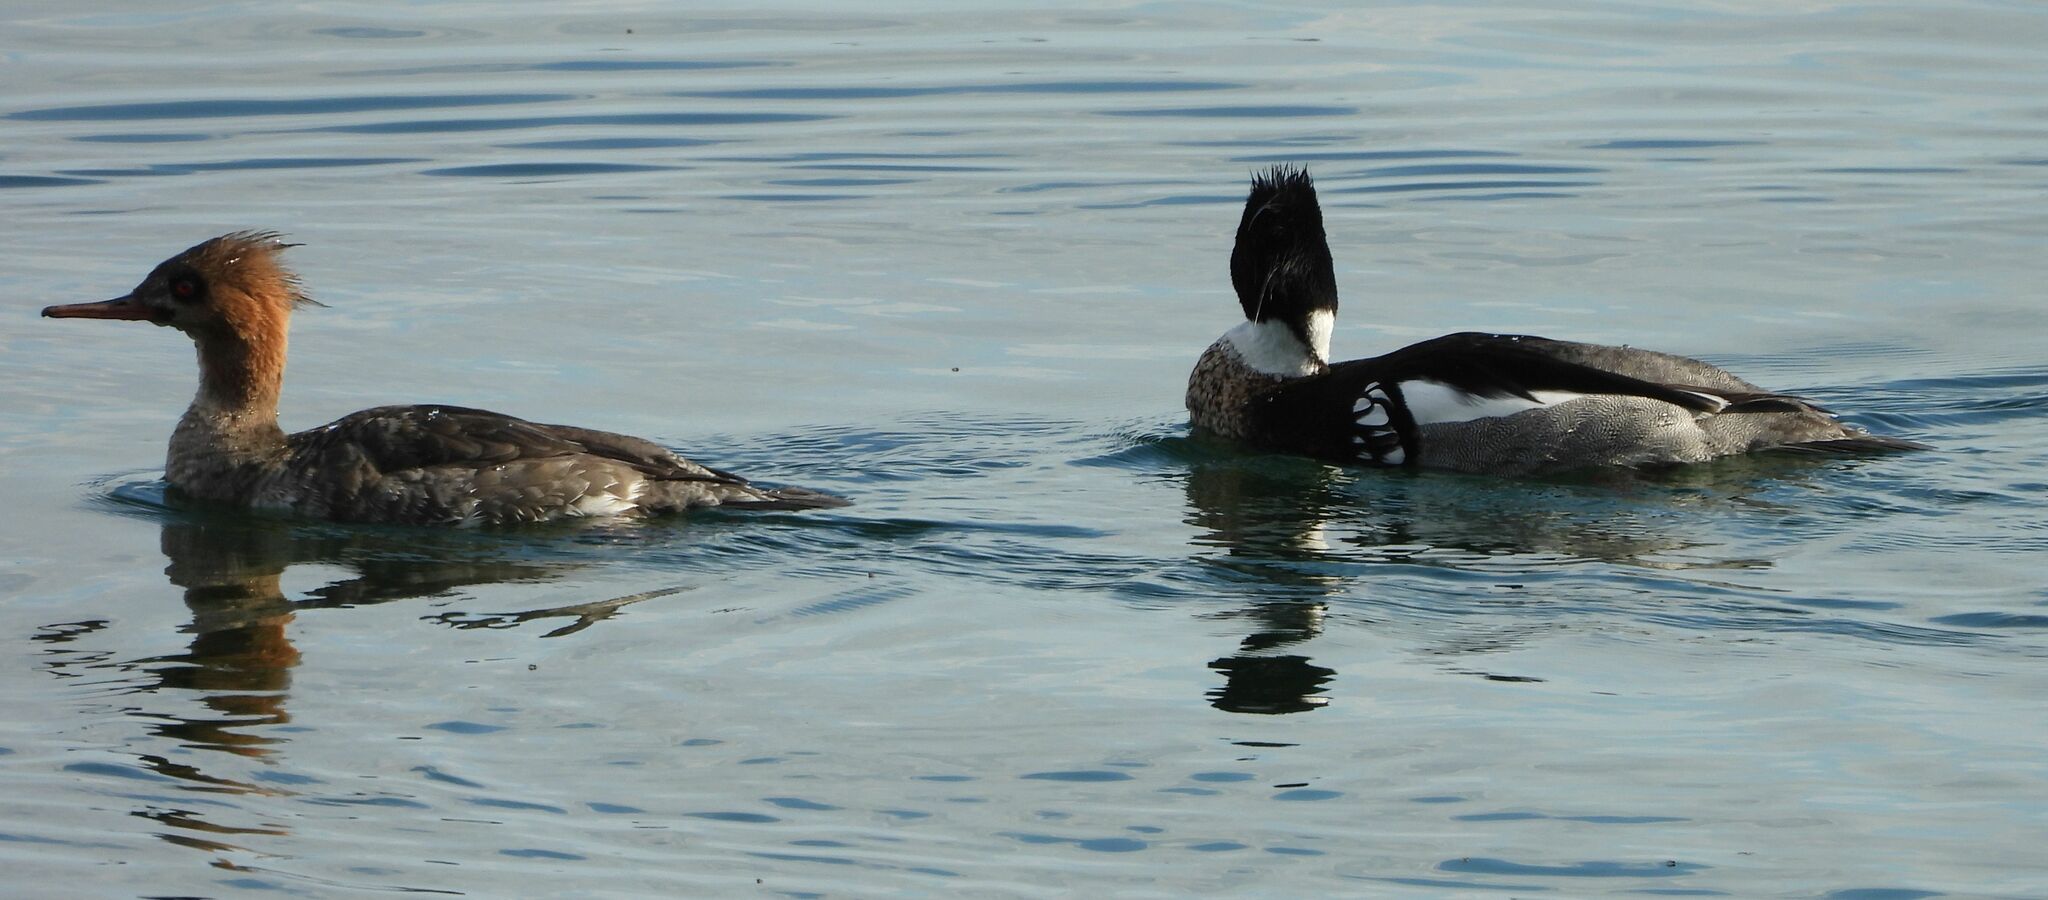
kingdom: Animalia
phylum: Chordata
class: Aves
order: Anseriformes
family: Anatidae
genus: Mergus
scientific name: Mergus serrator
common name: Red-breasted merganser
